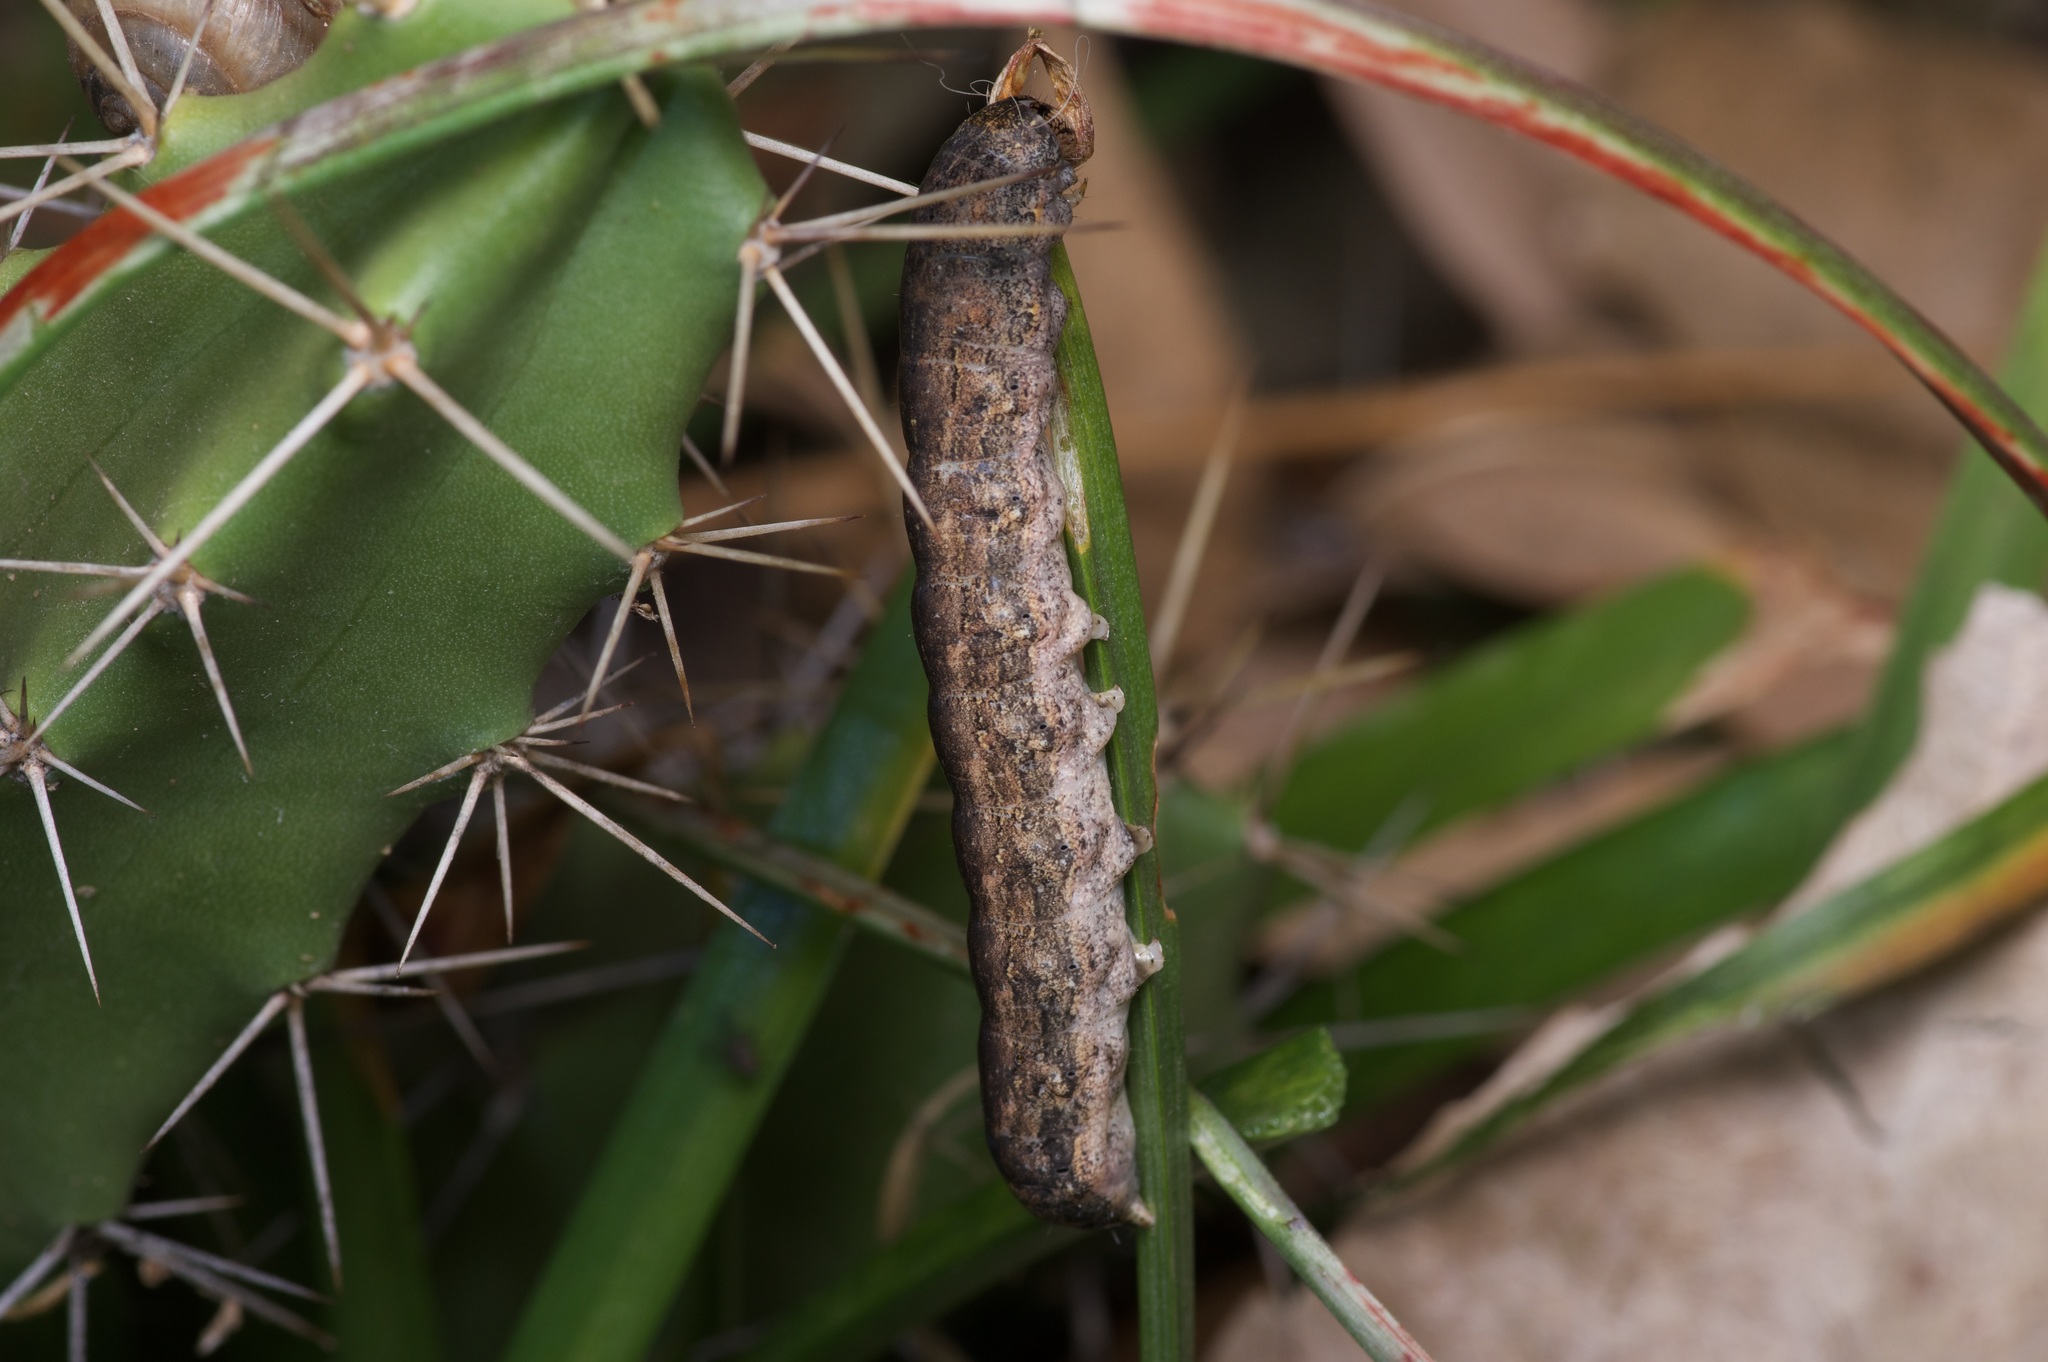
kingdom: Animalia
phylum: Arthropoda
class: Insecta
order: Lepidoptera
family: Noctuidae
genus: Peridroma
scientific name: Peridroma saucia
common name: Pearly underwing
